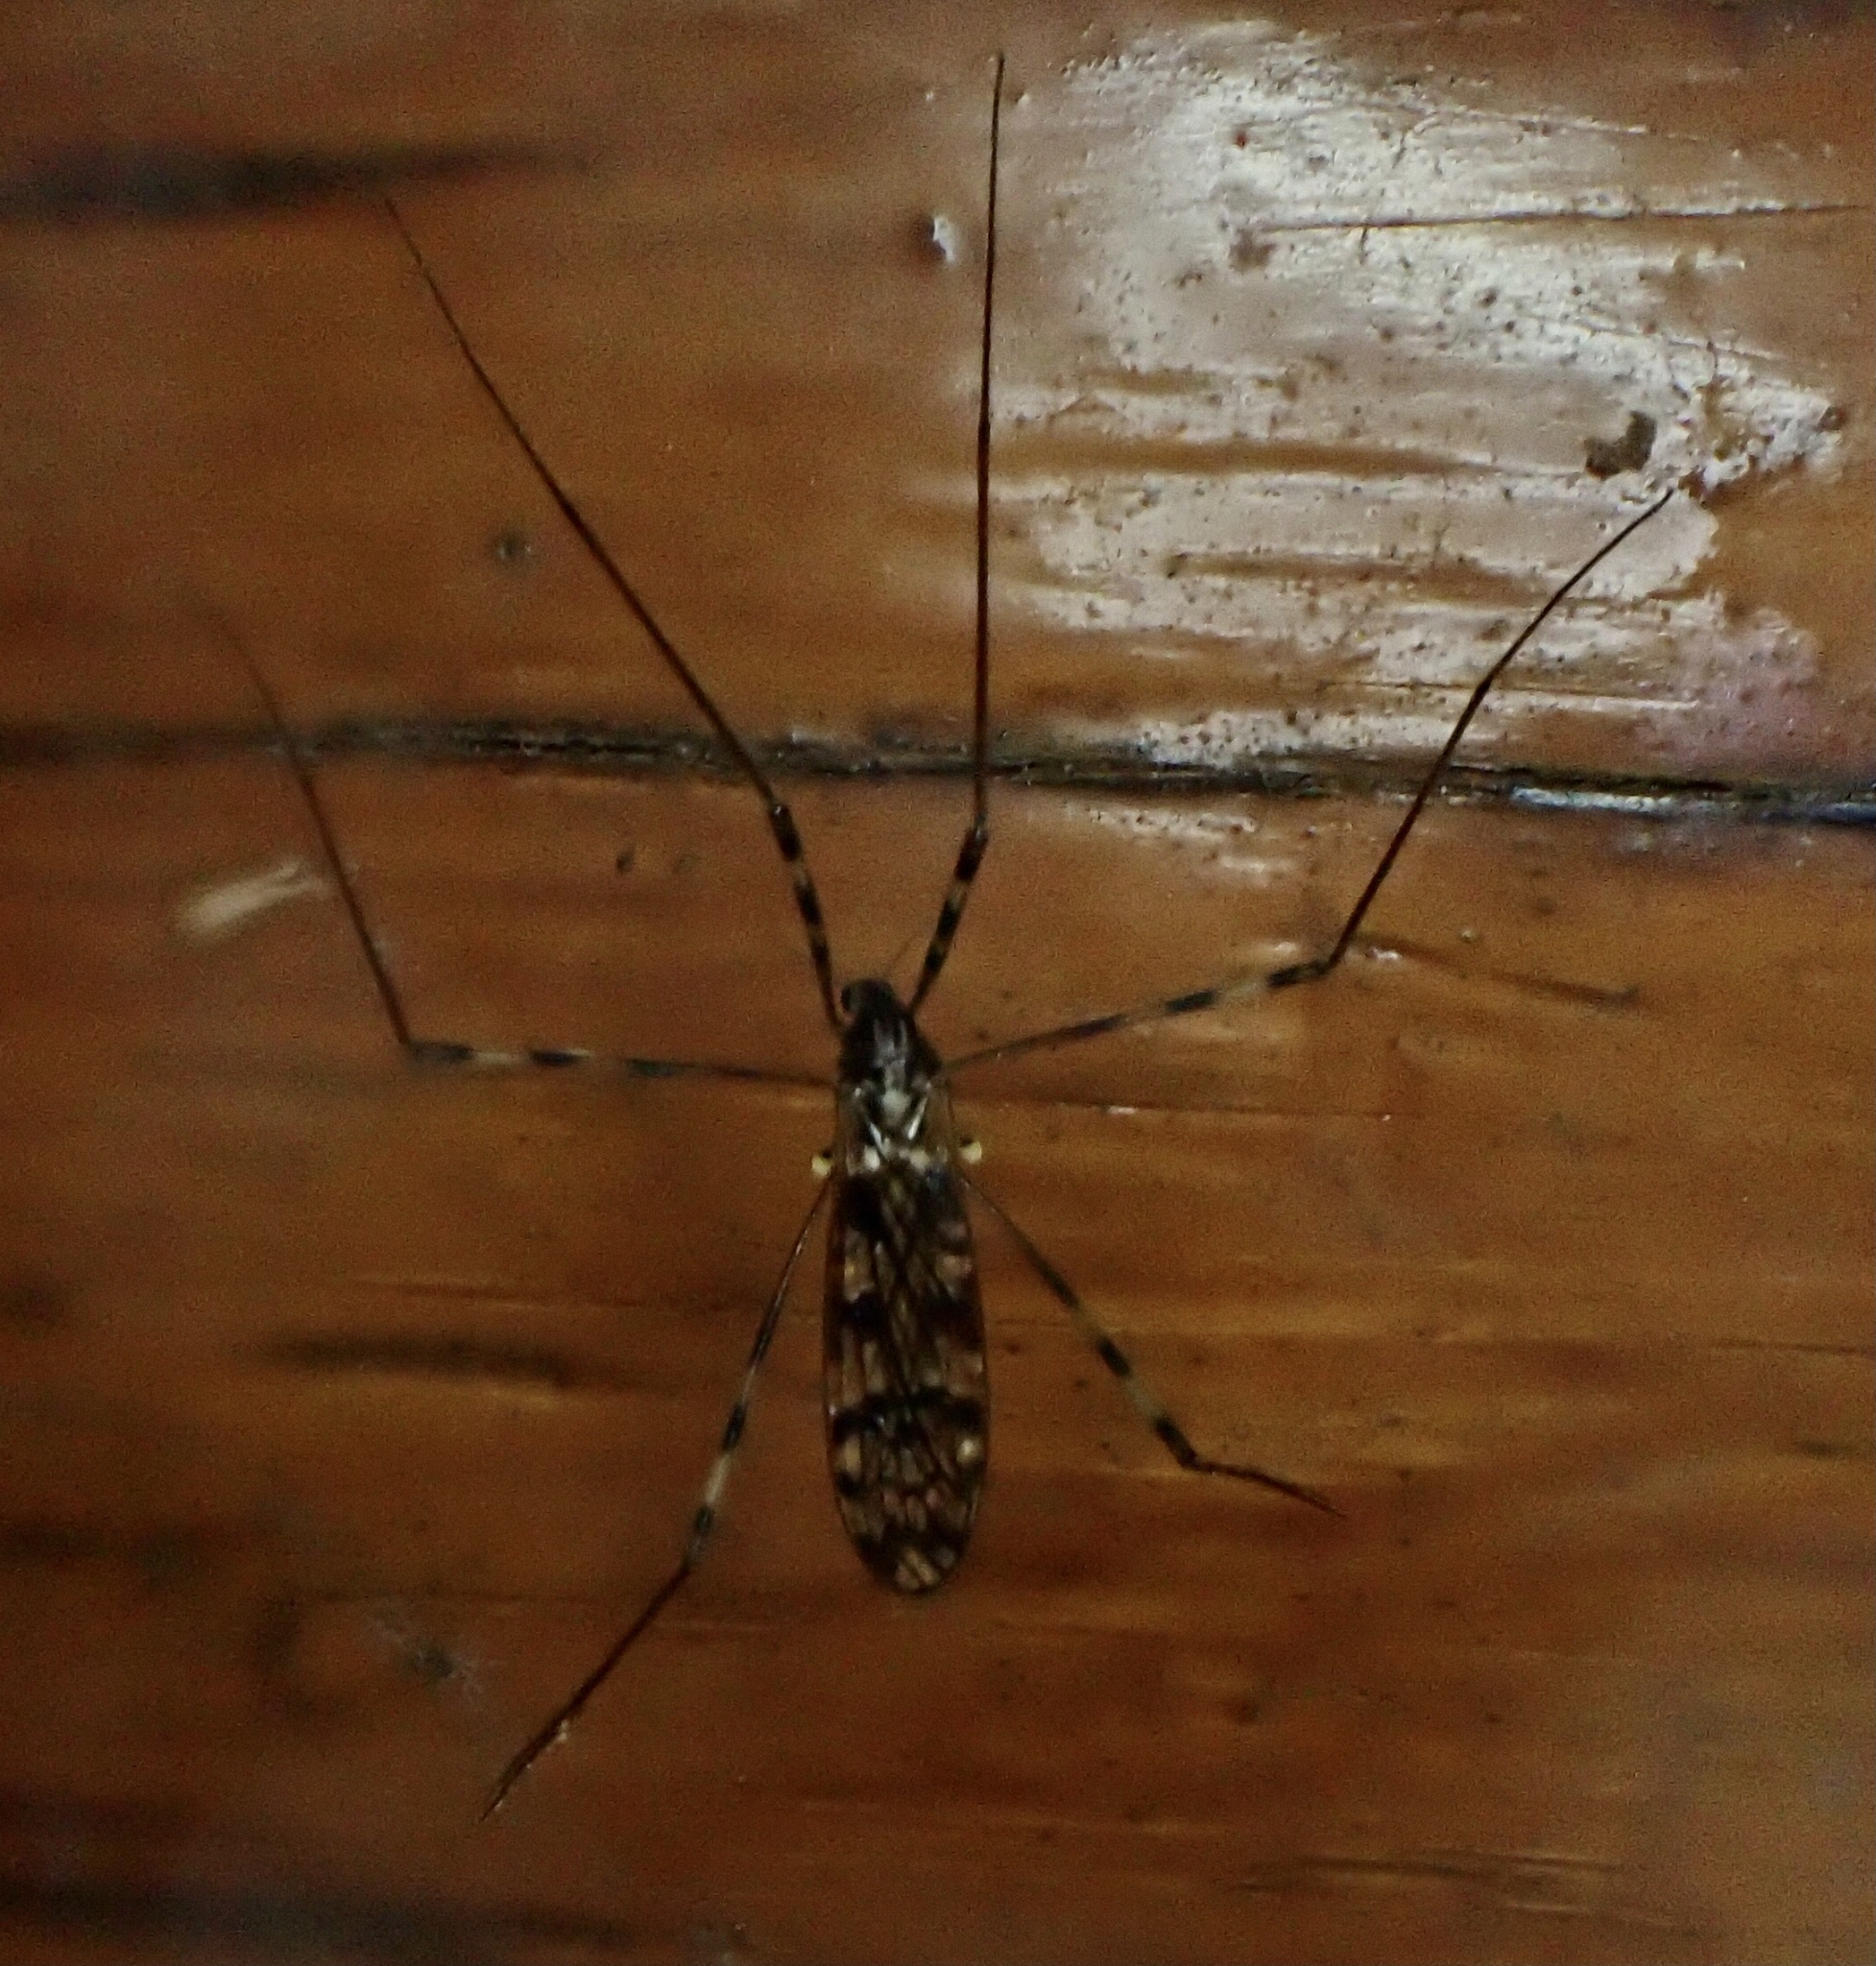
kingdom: Animalia
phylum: Arthropoda
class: Insecta
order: Diptera
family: Limoniidae
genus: Metalimnobia
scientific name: Metalimnobia immatura
